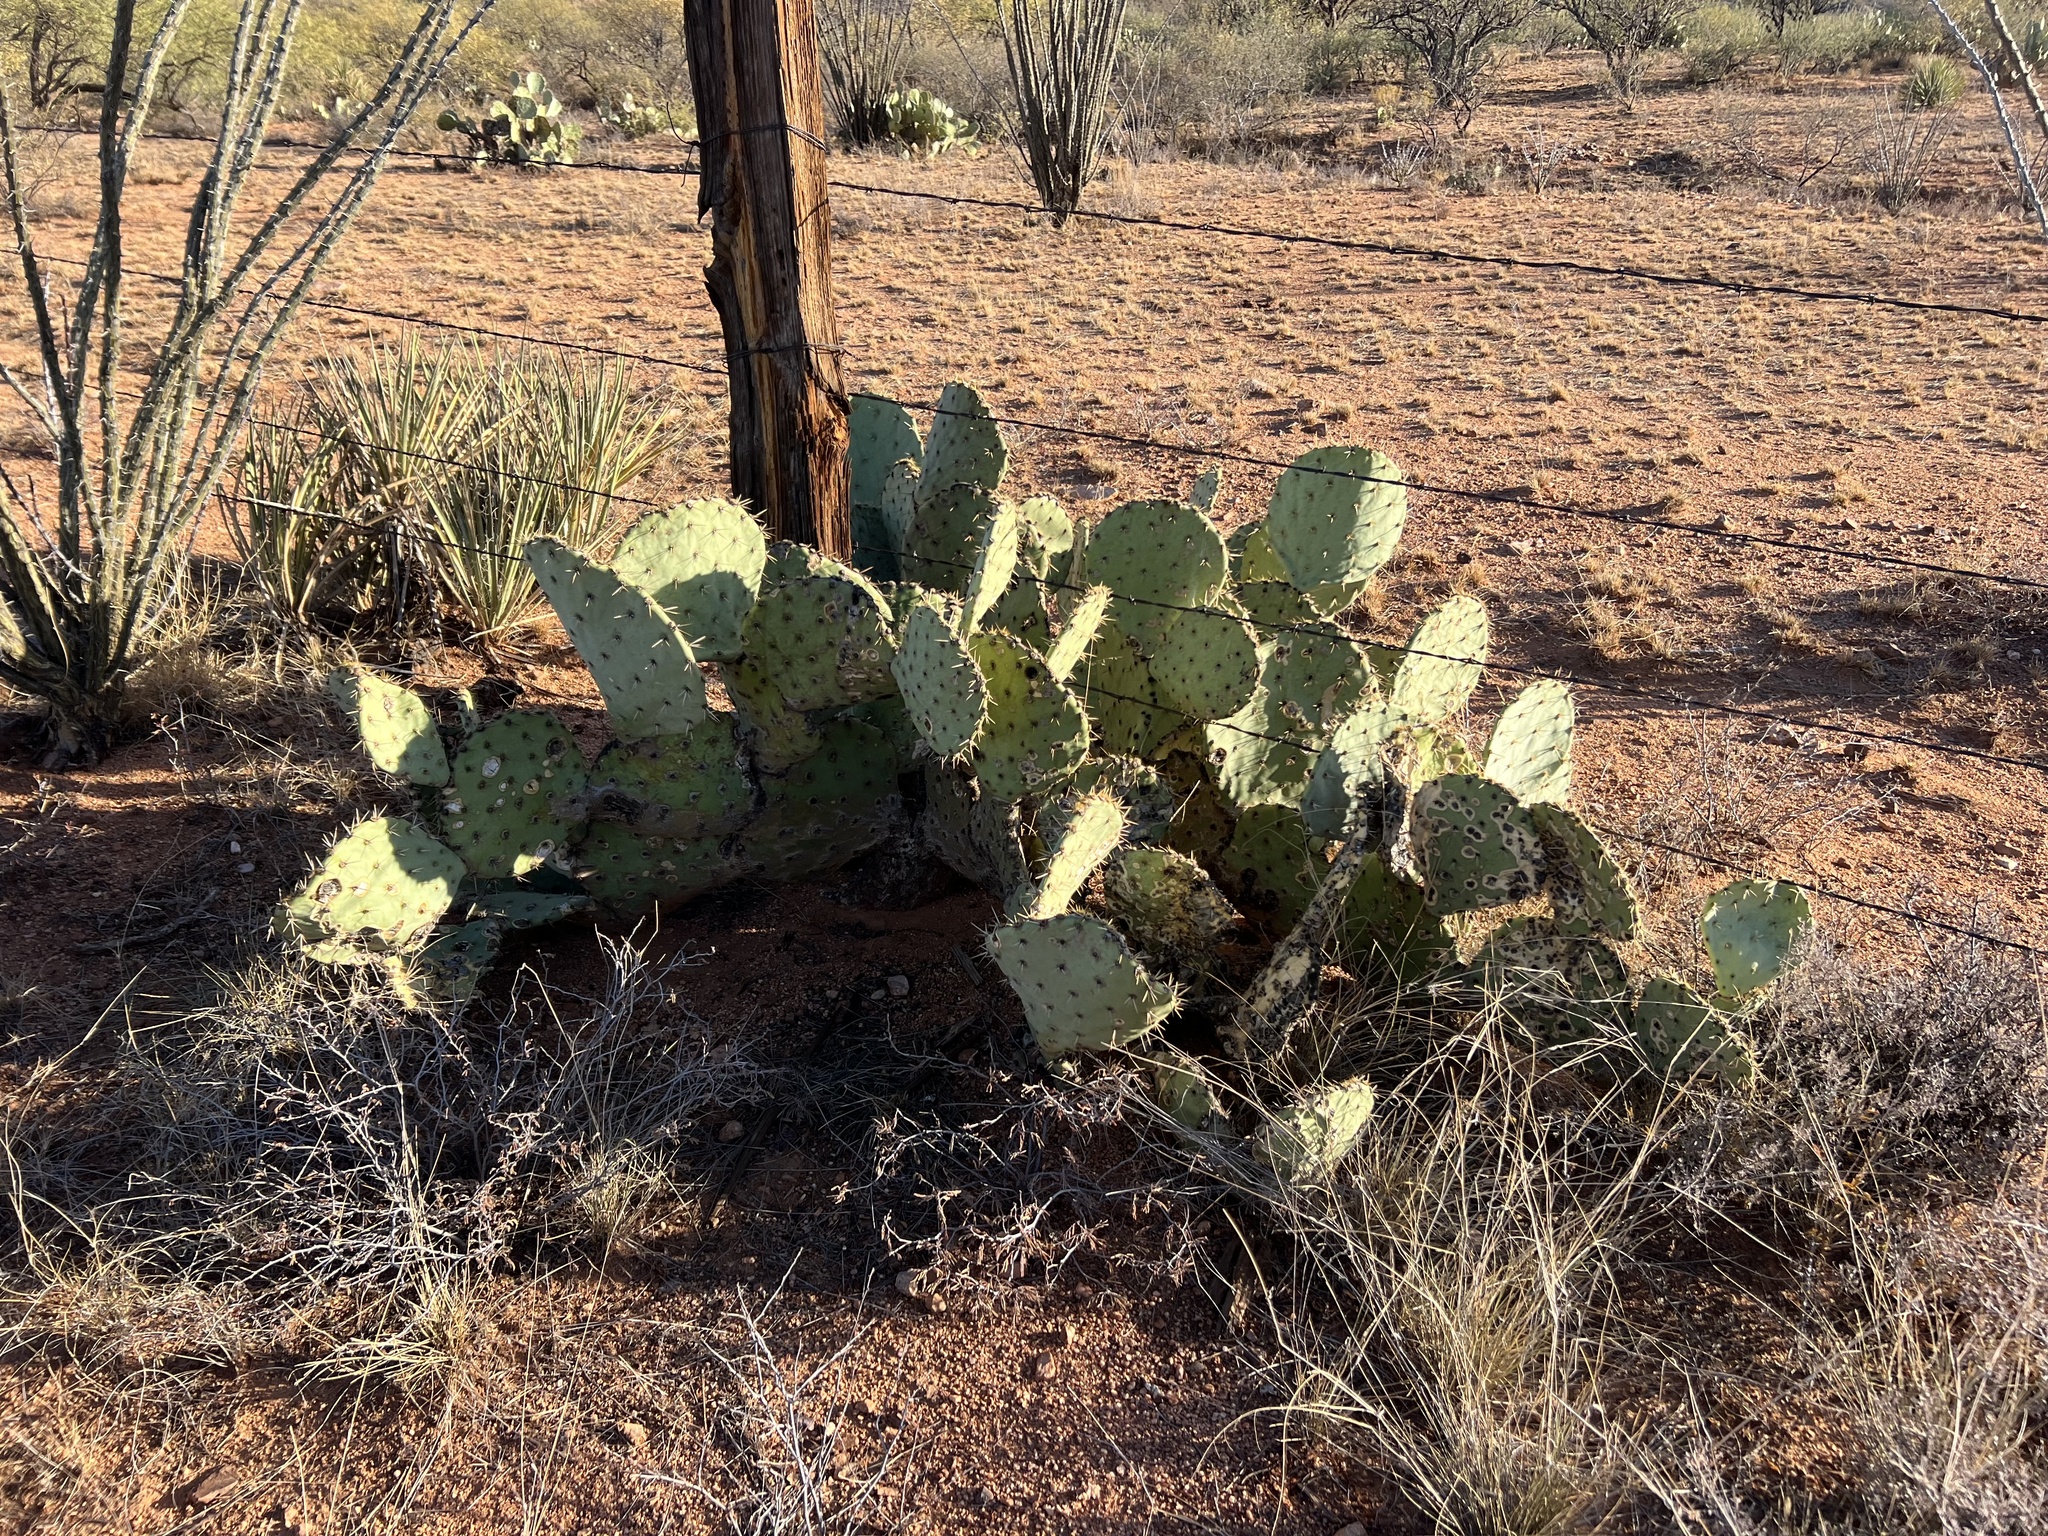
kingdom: Plantae
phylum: Tracheophyta
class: Magnoliopsida
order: Caryophyllales
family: Cactaceae
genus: Opuntia
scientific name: Opuntia engelmannii
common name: Cactus-apple
